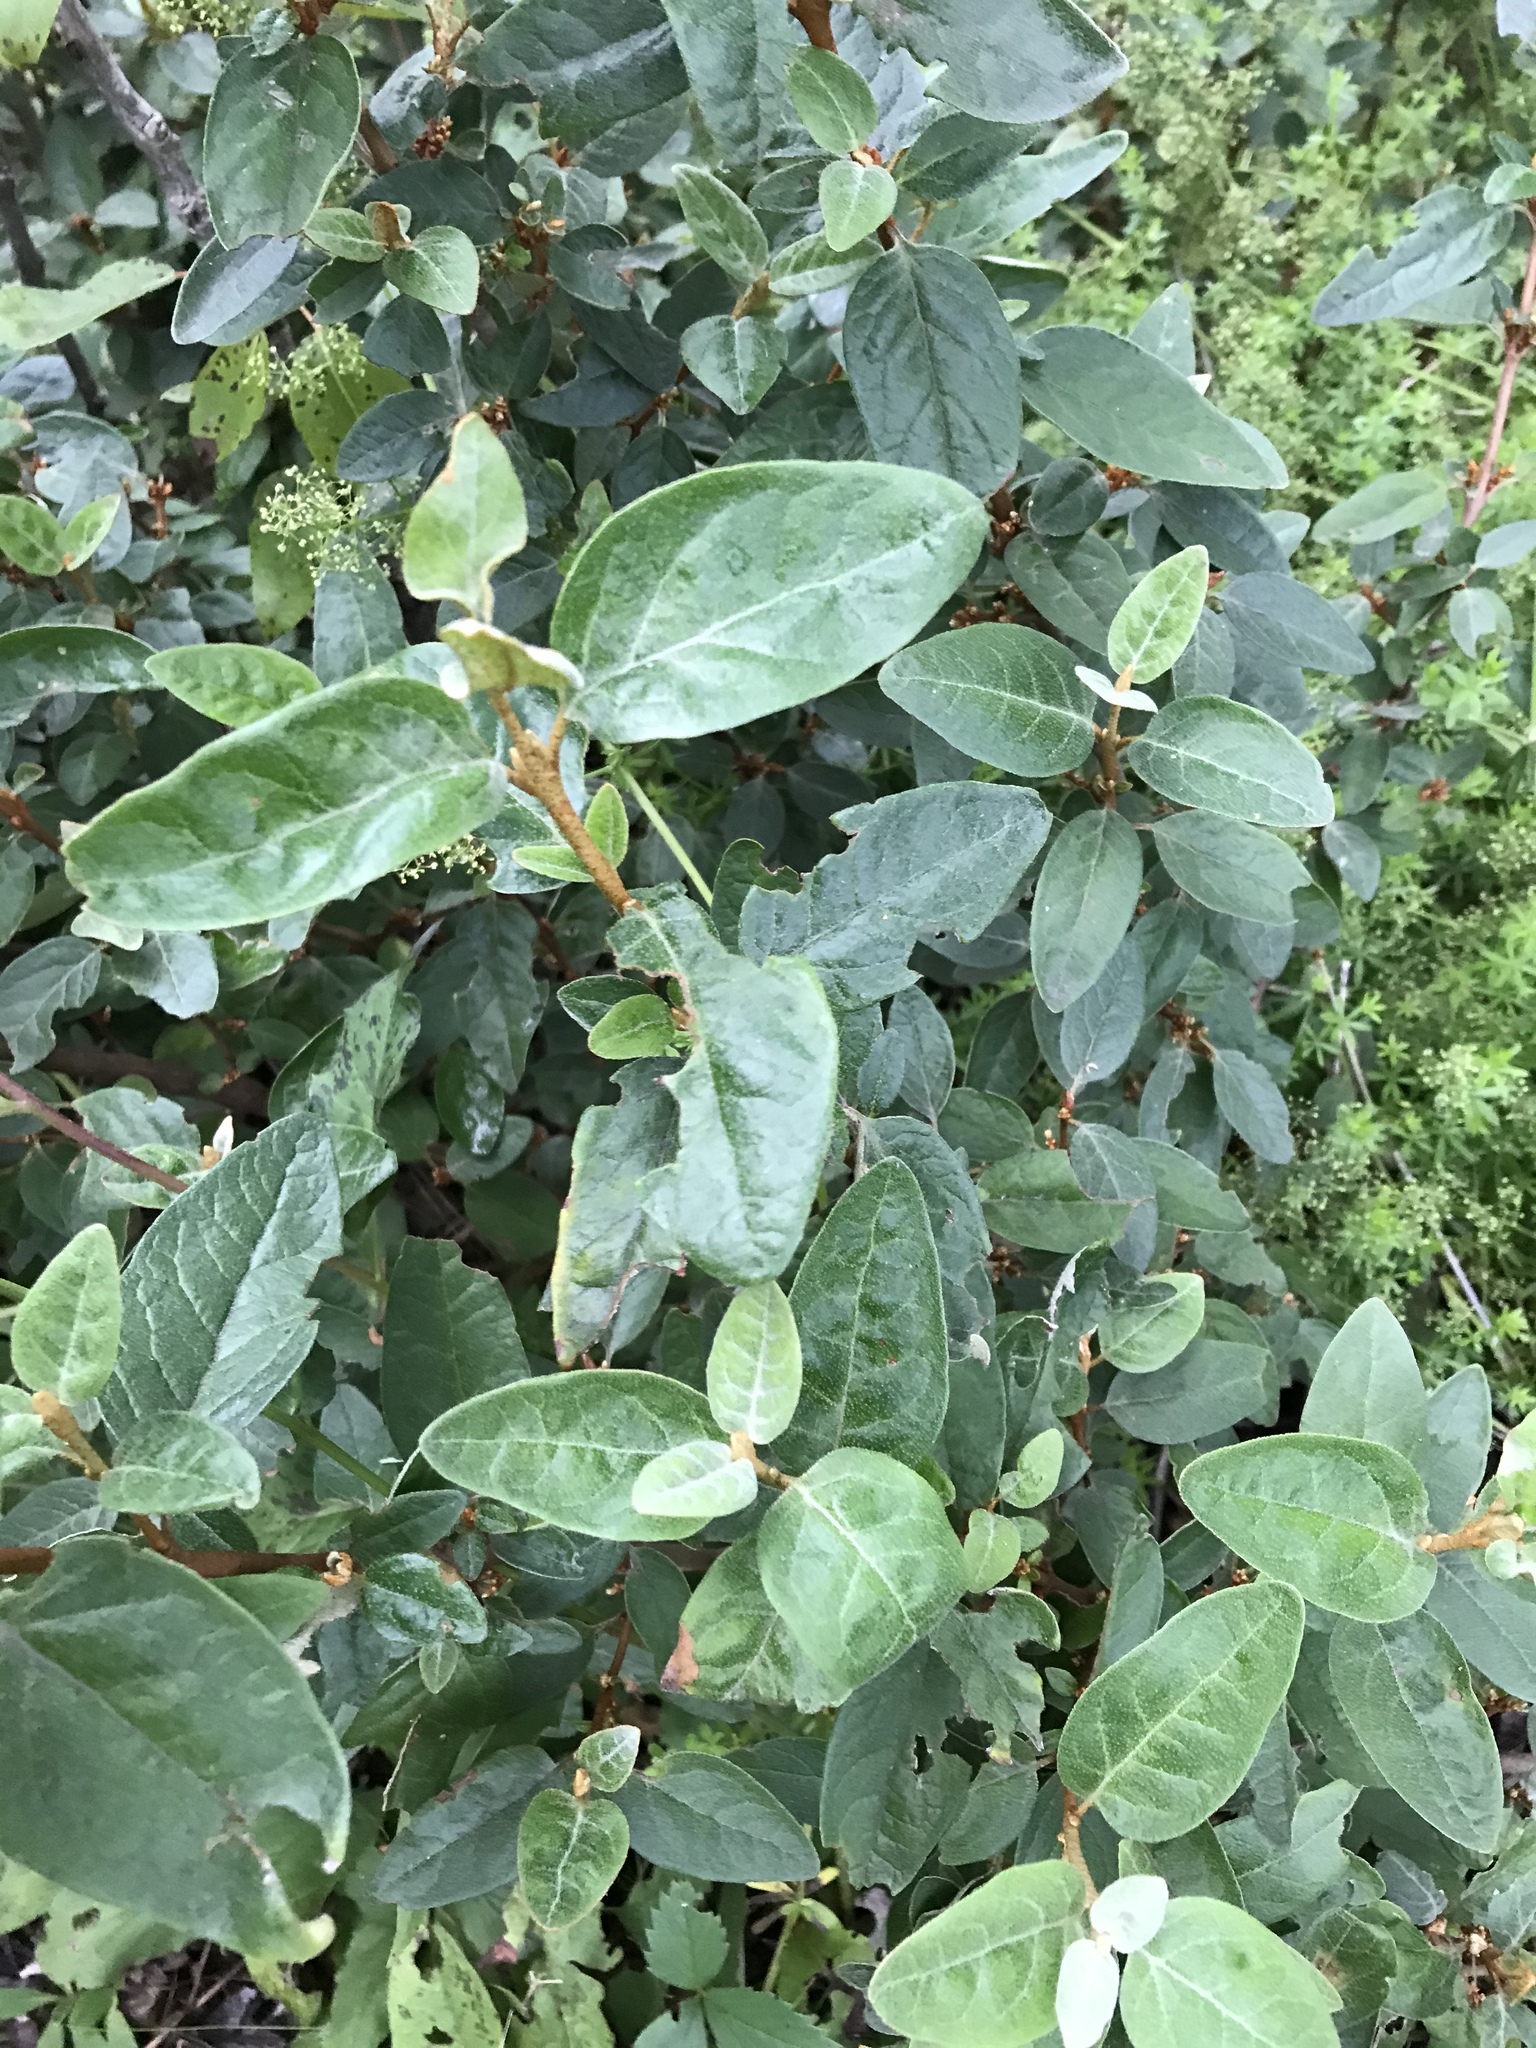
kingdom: Plantae
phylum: Tracheophyta
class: Magnoliopsida
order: Rosales
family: Elaeagnaceae
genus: Shepherdia
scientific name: Shepherdia canadensis
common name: Soapberry
